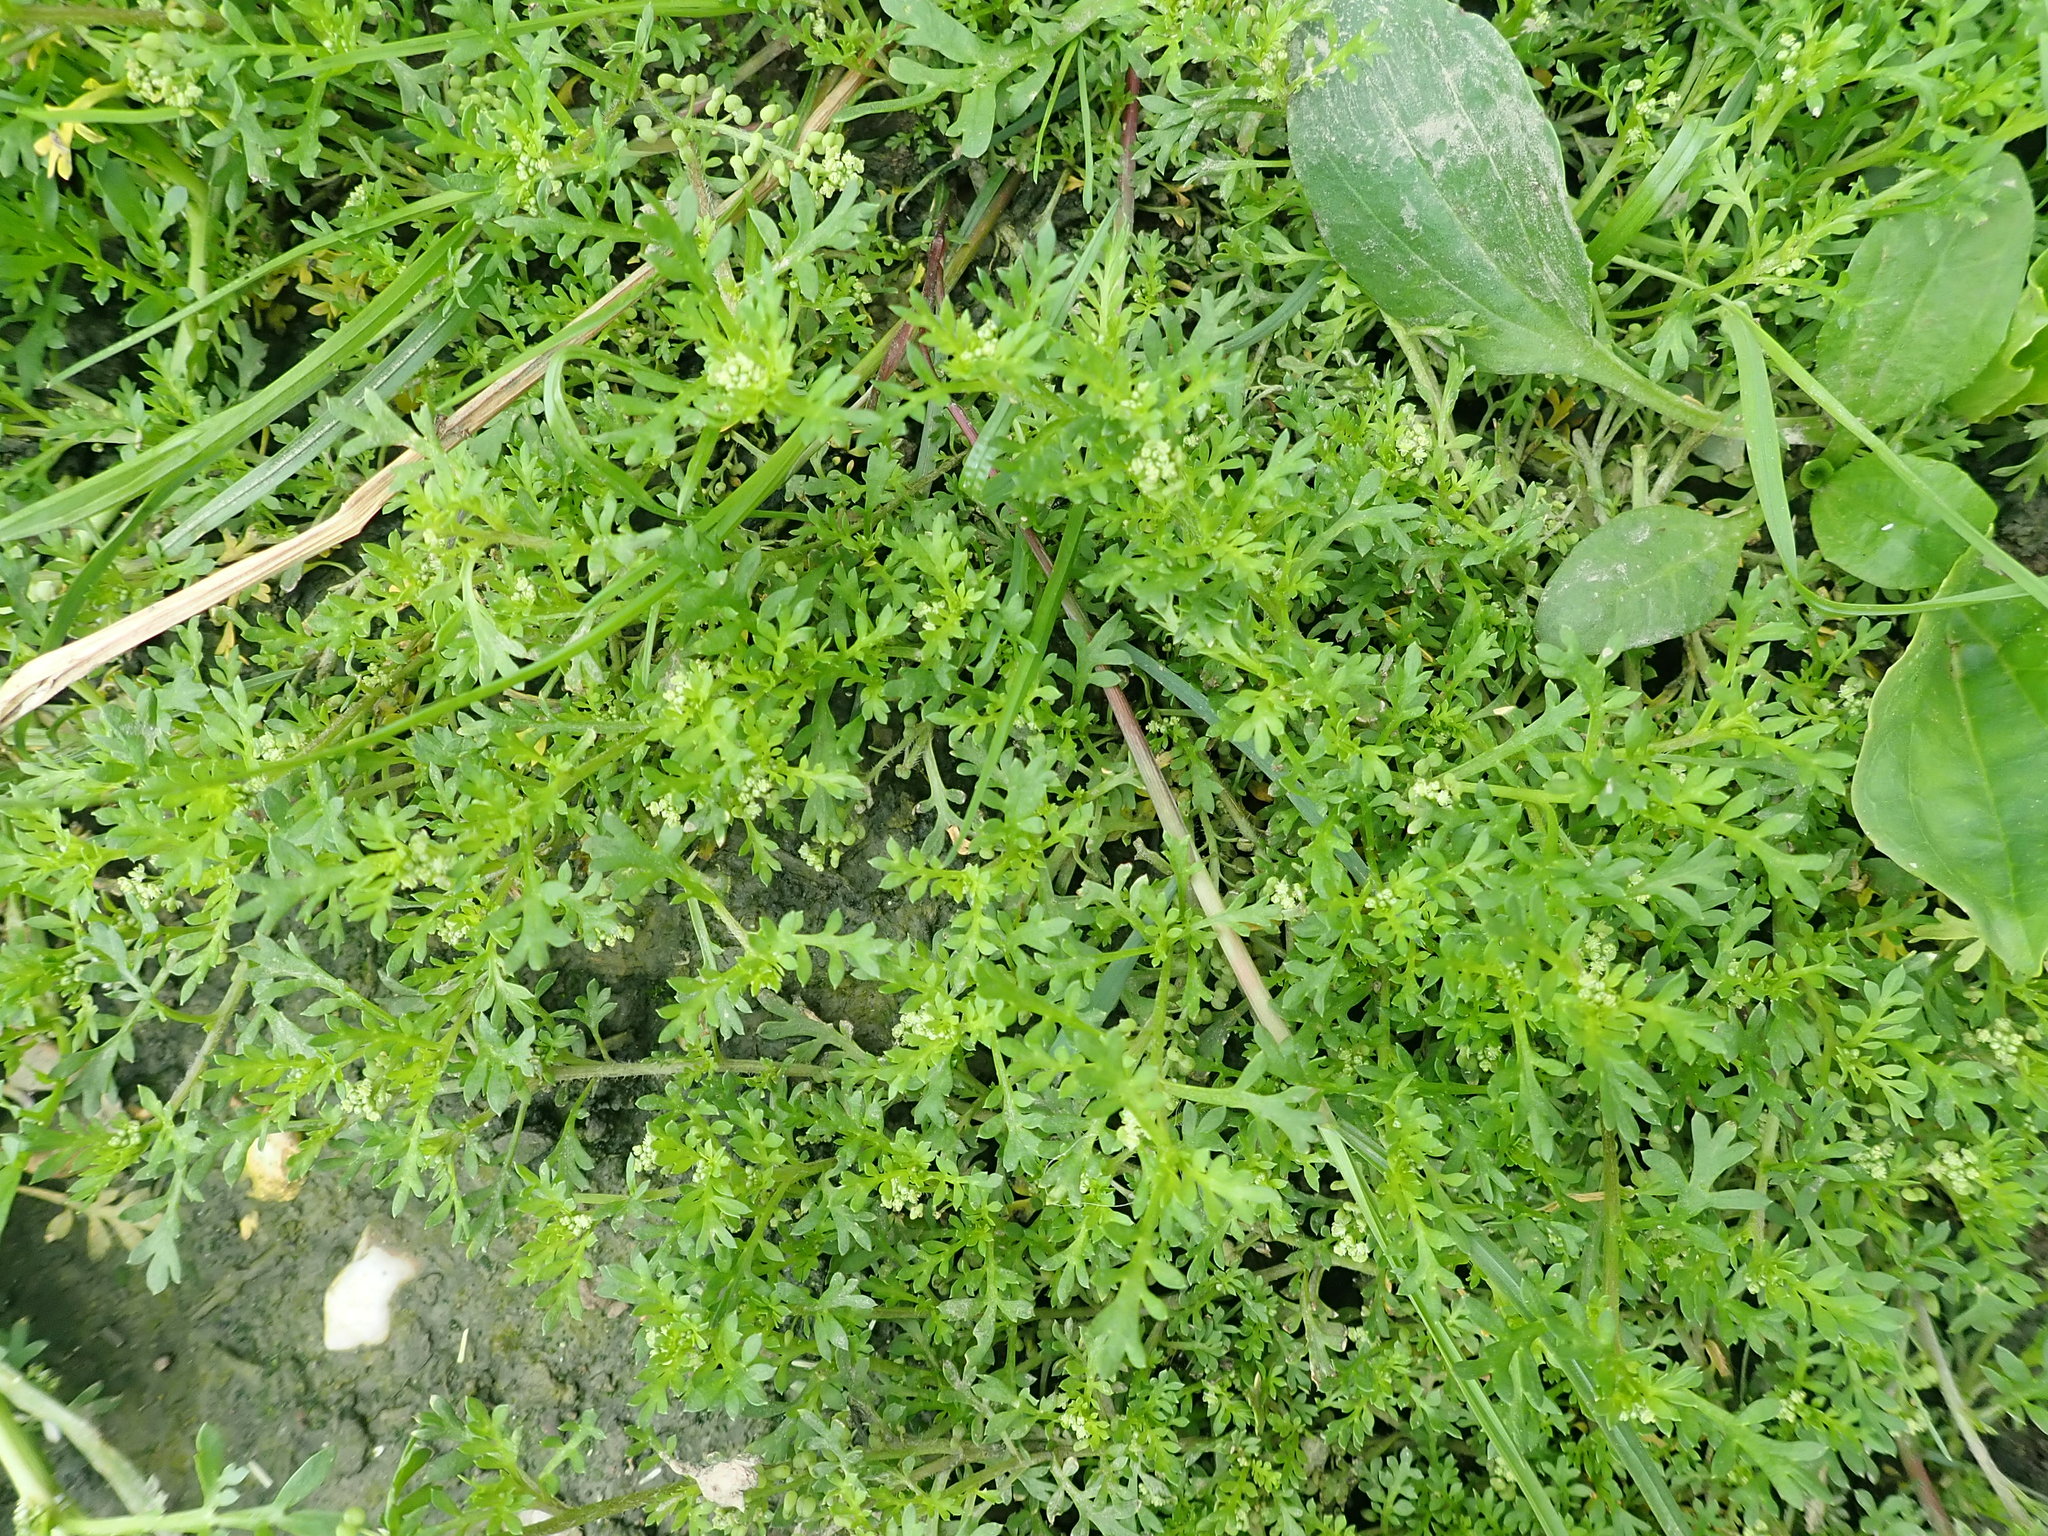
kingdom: Plantae
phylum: Tracheophyta
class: Magnoliopsida
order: Brassicales
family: Brassicaceae
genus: Lepidium
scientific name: Lepidium didymum
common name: Lesser swinecress
